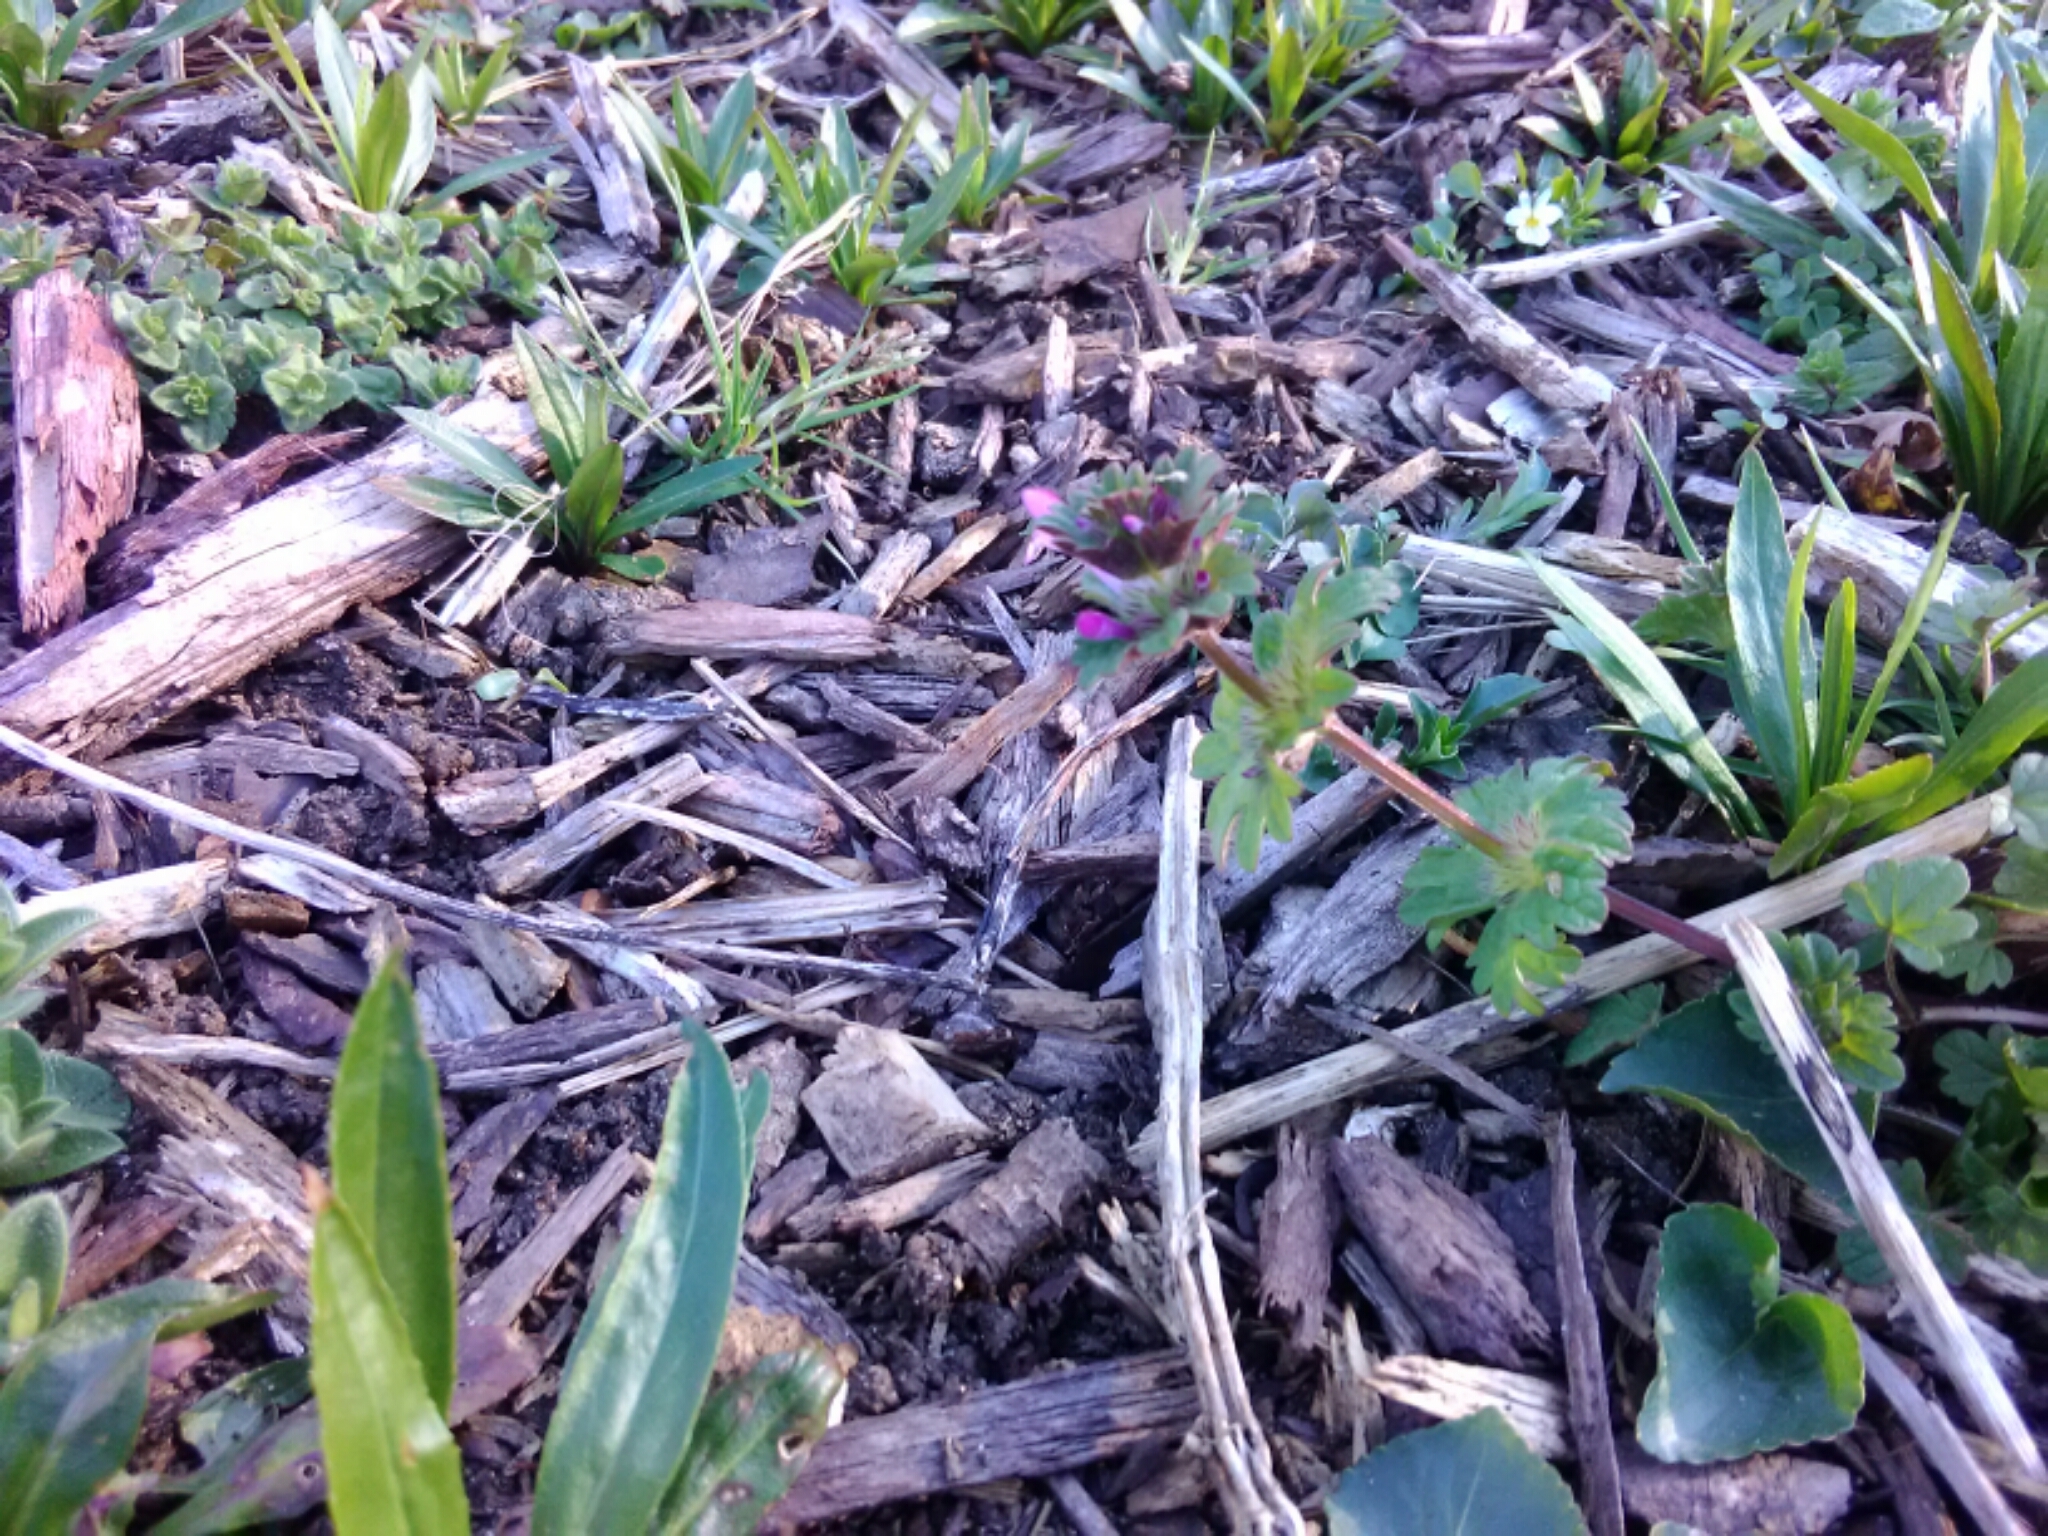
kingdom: Plantae
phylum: Tracheophyta
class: Magnoliopsida
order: Lamiales
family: Lamiaceae
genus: Lamium
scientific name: Lamium amplexicaule
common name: Henbit dead-nettle
